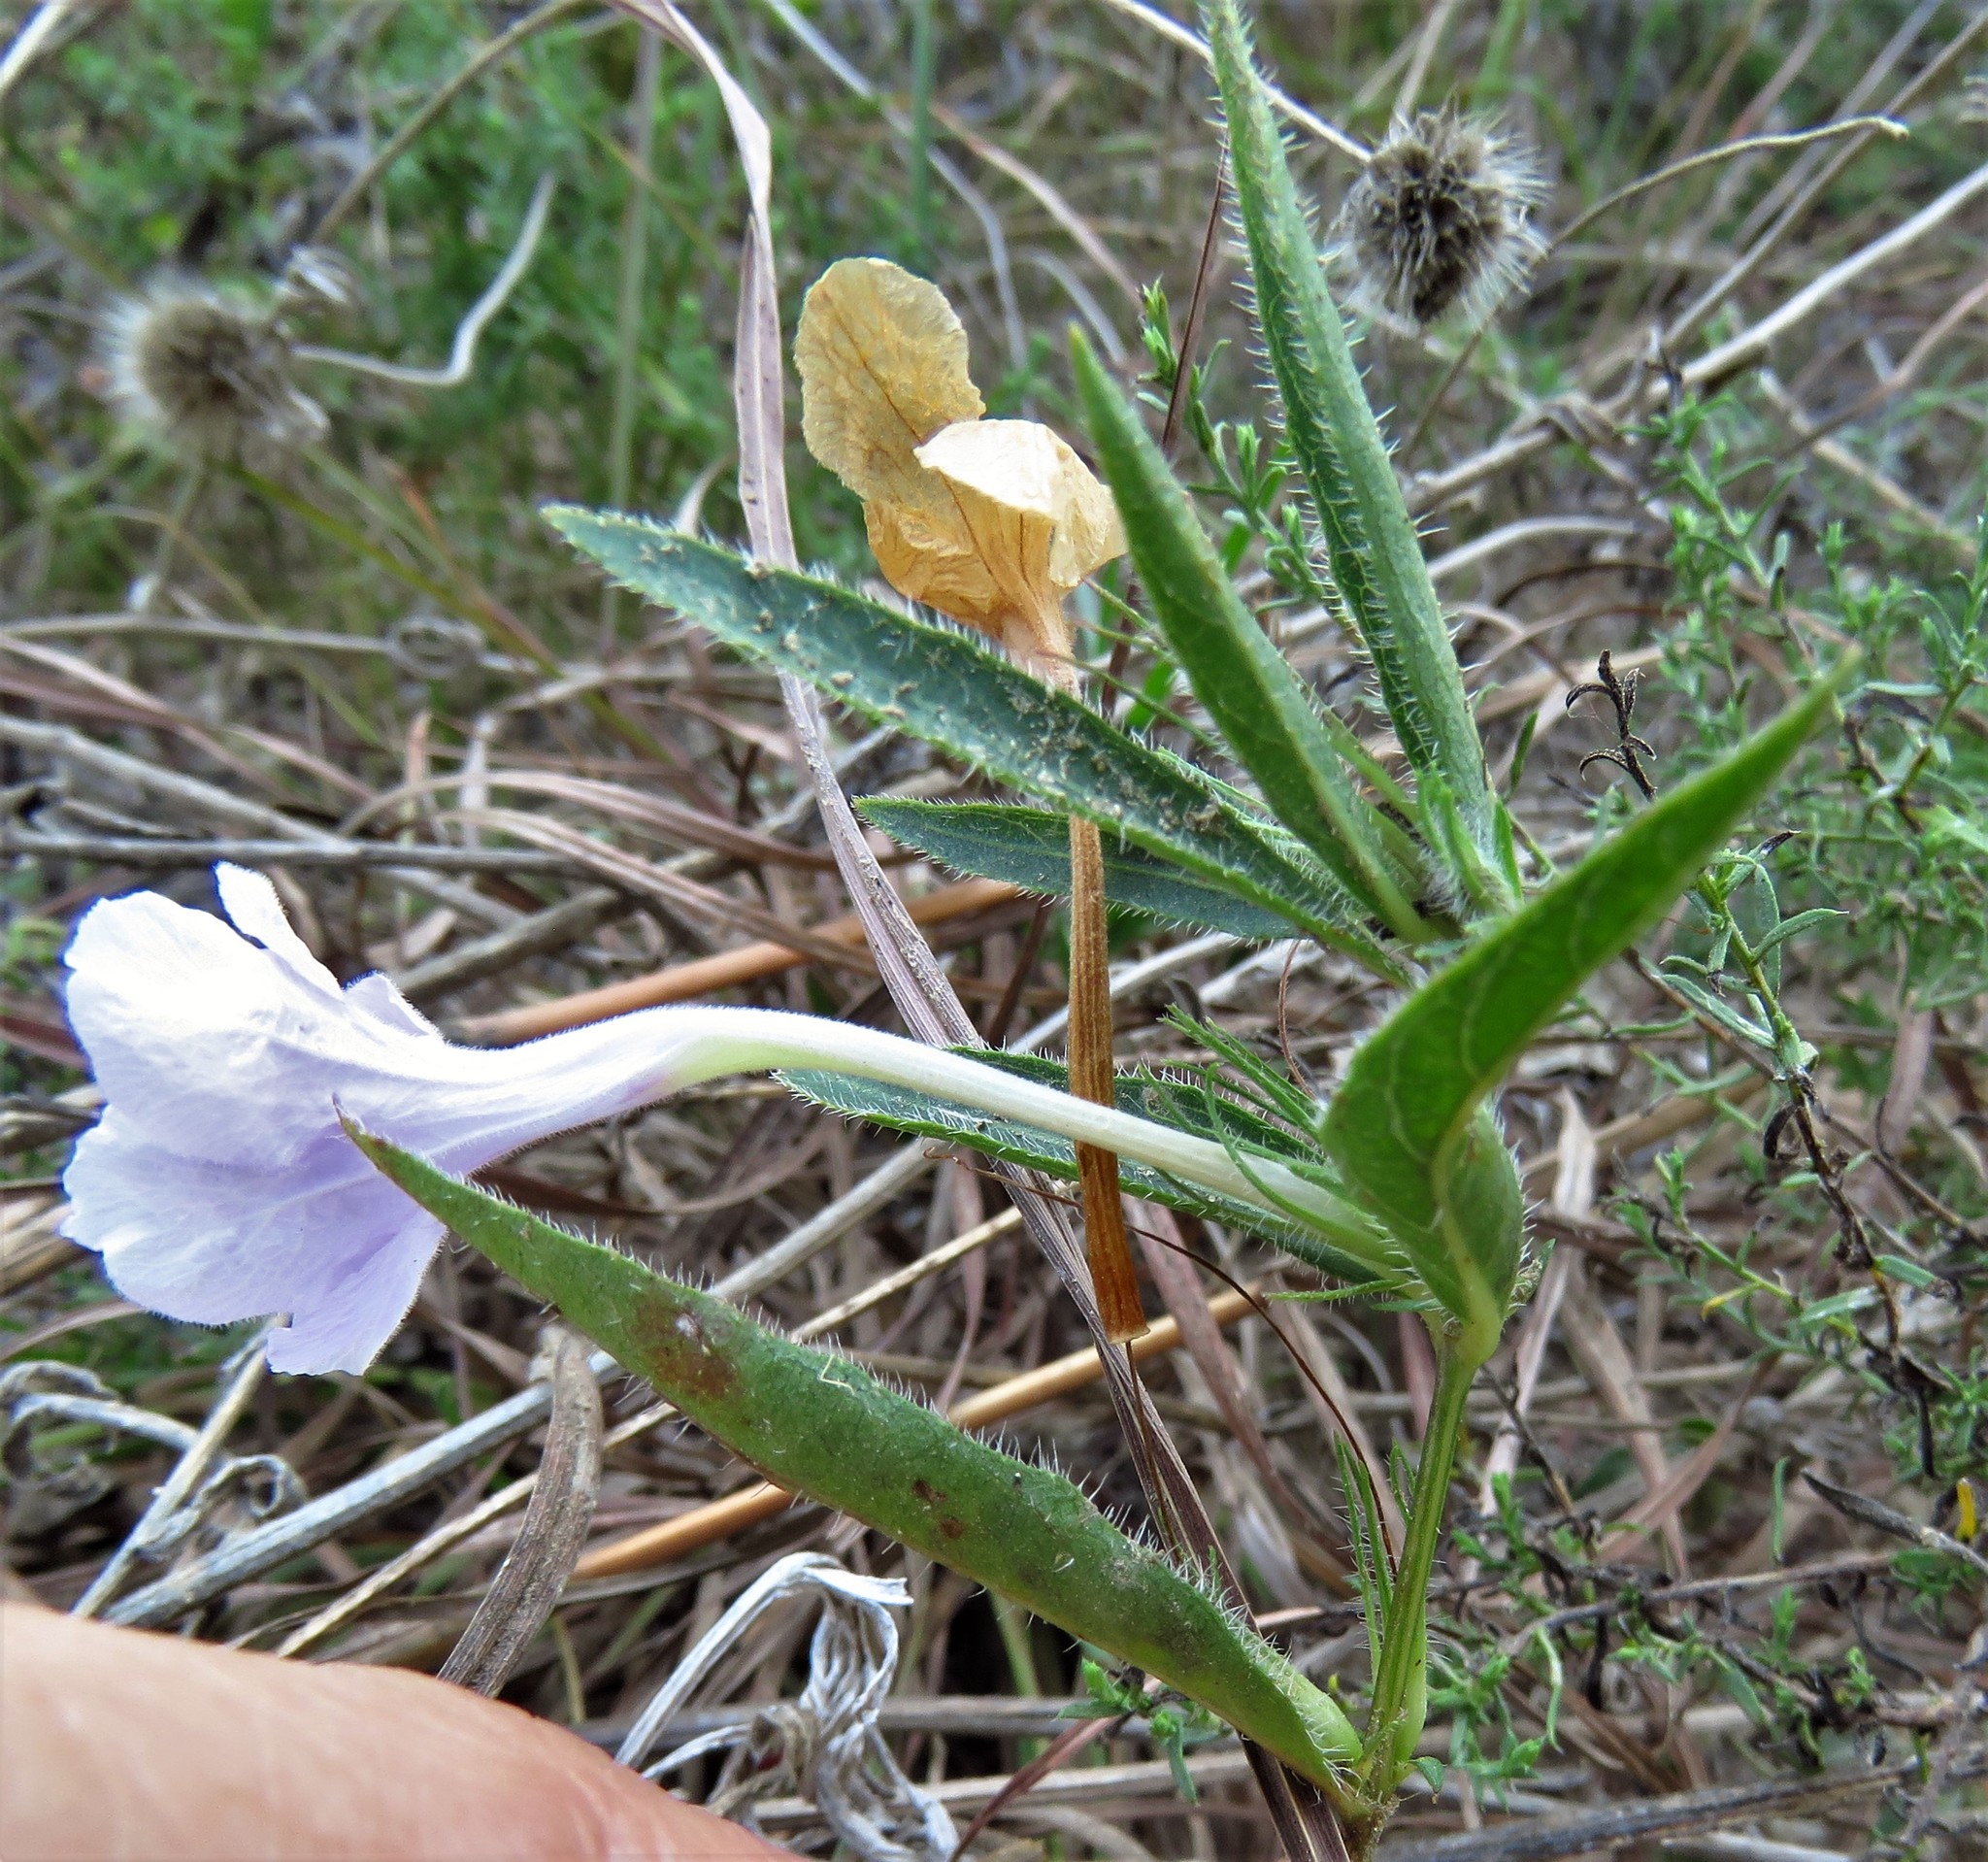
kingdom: Plantae
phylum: Tracheophyta
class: Magnoliopsida
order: Lamiales
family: Acanthaceae
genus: Ruellia
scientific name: Ruellia humilis
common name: Fringe-leaf ruellia
